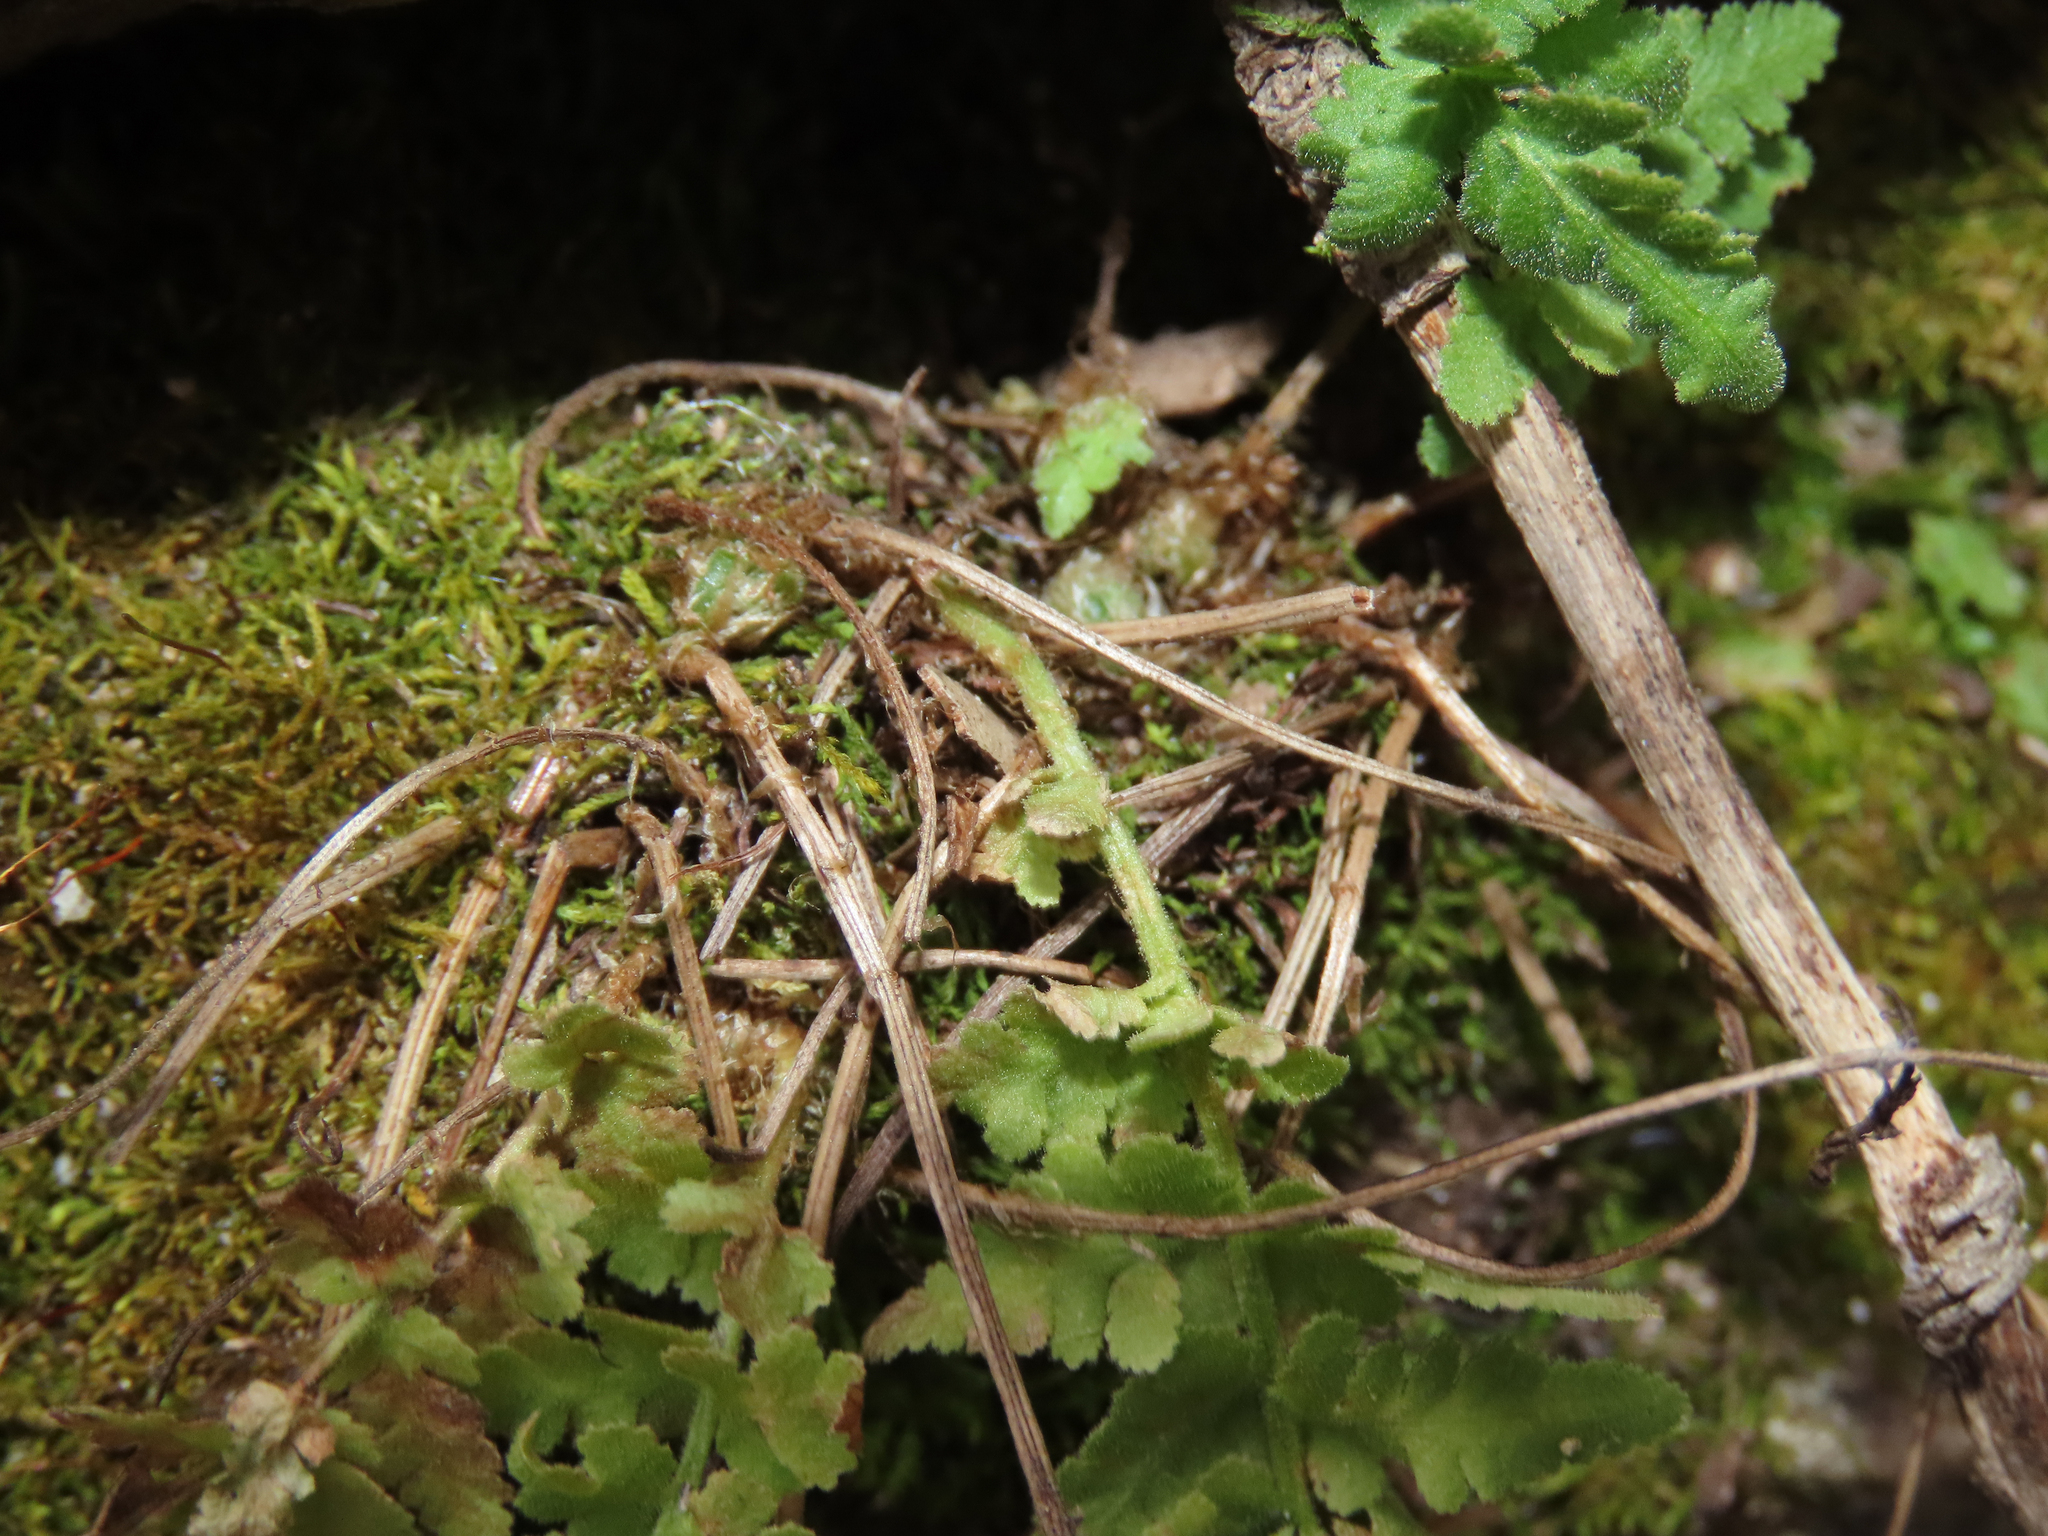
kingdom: Plantae
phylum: Tracheophyta
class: Polypodiopsida
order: Polypodiales
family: Woodsiaceae
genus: Physematium
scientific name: Physematium plummerae
